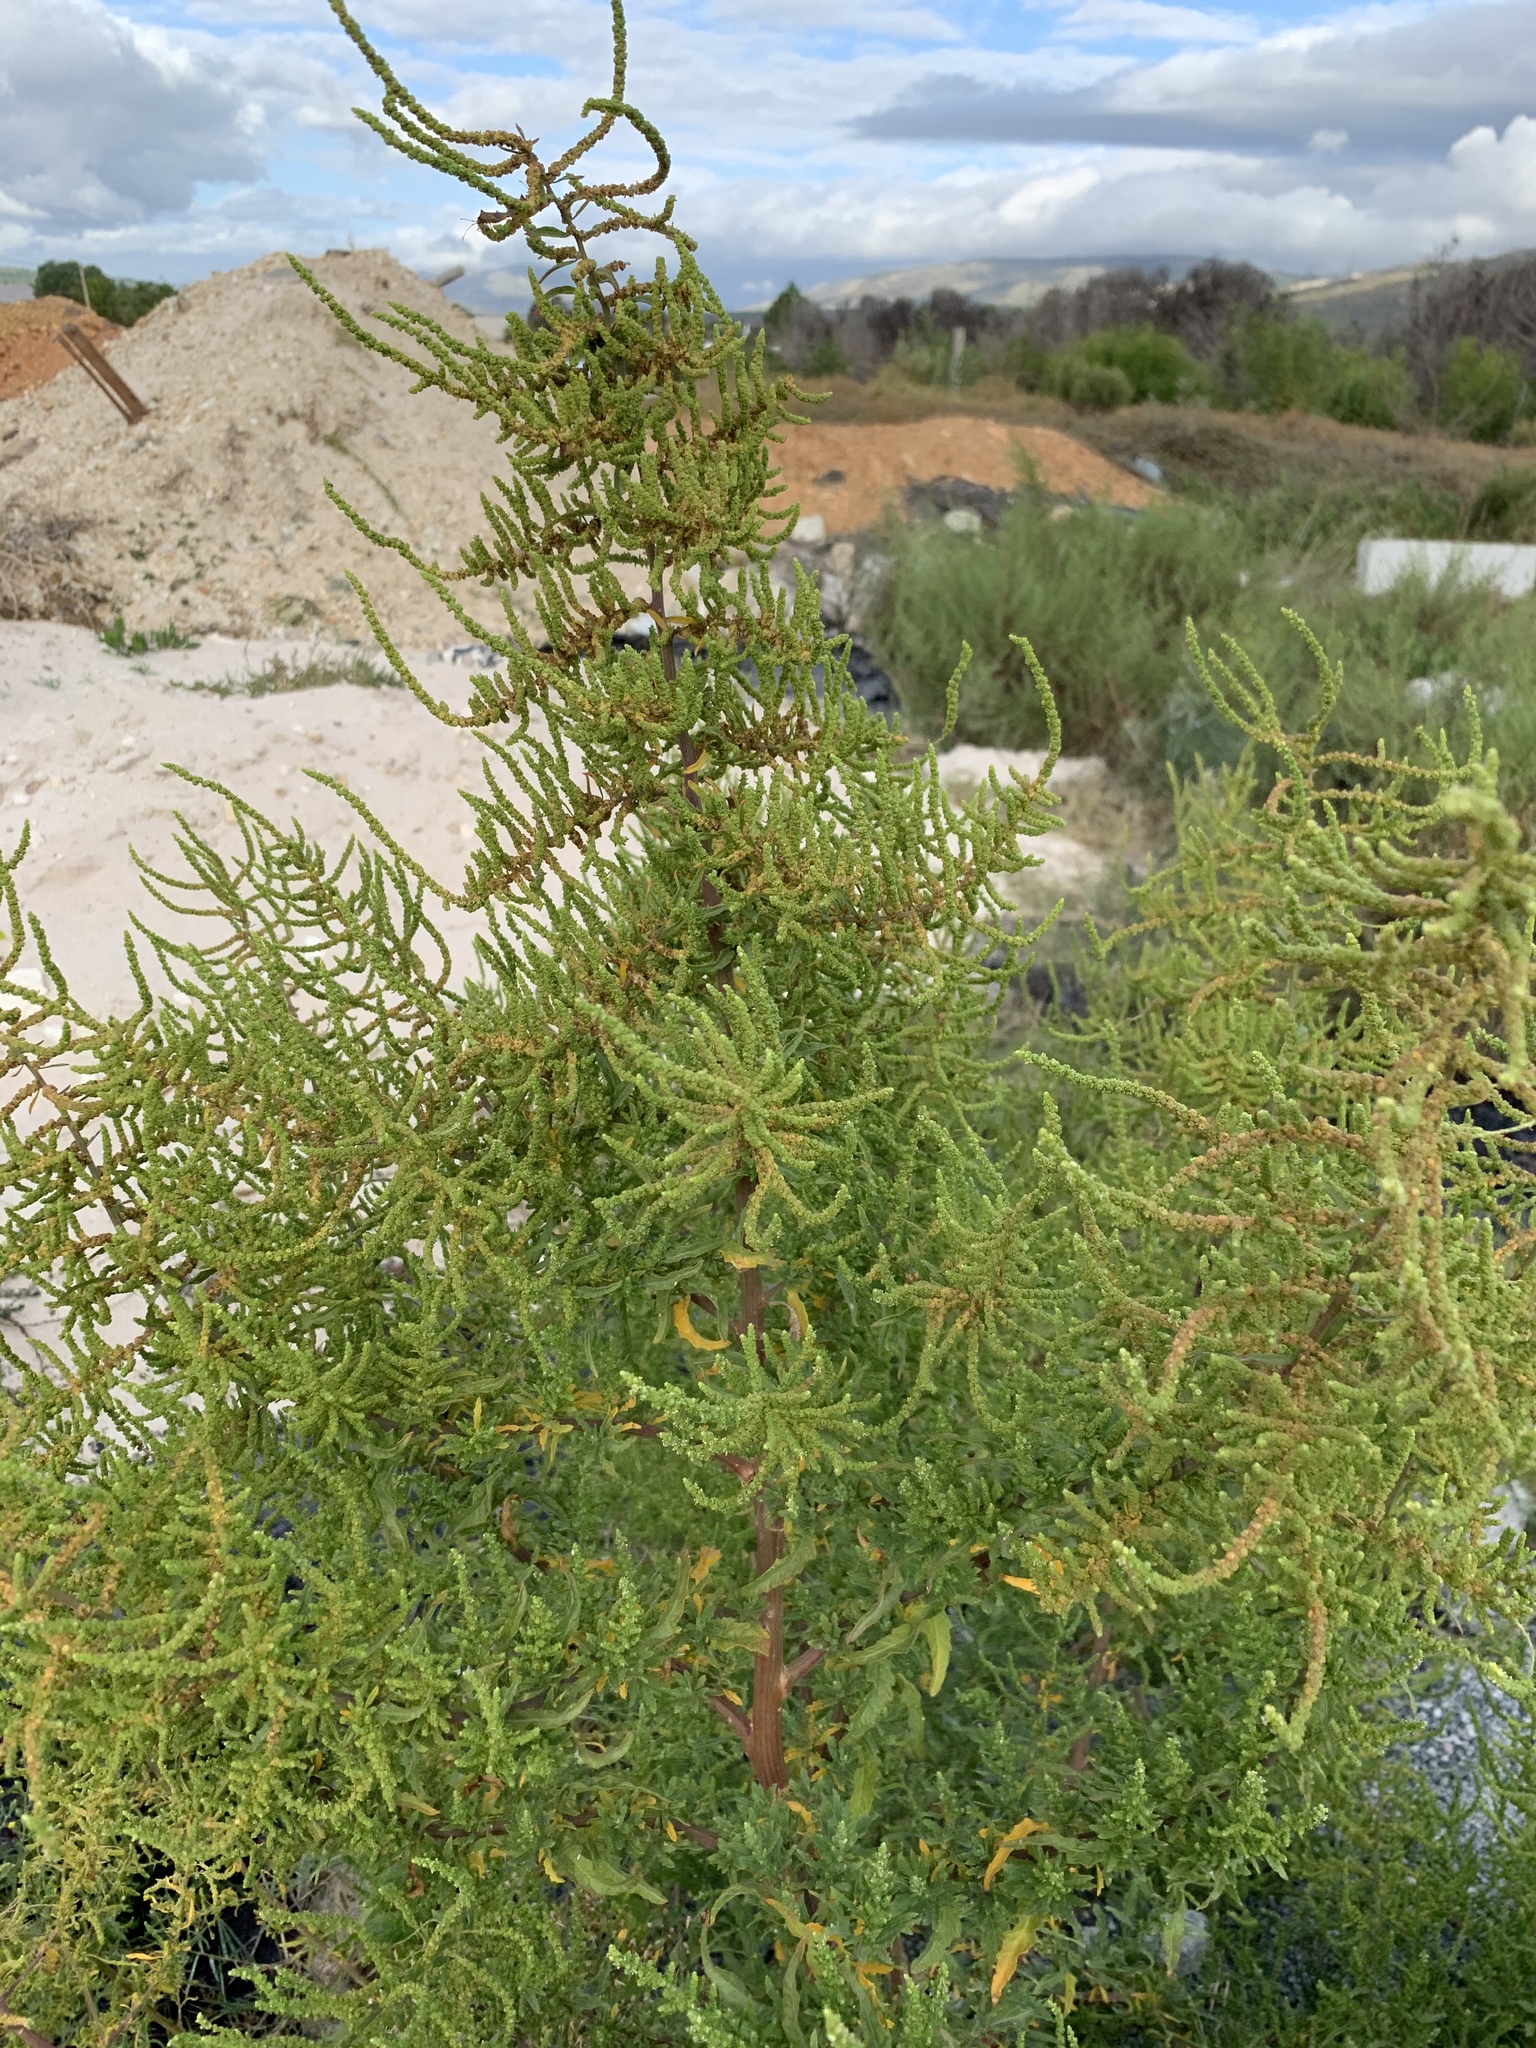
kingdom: Plantae
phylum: Tracheophyta
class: Magnoliopsida
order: Caryophyllales
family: Amaranthaceae
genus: Dysphania
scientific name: Dysphania ambrosioides
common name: Wormseed
